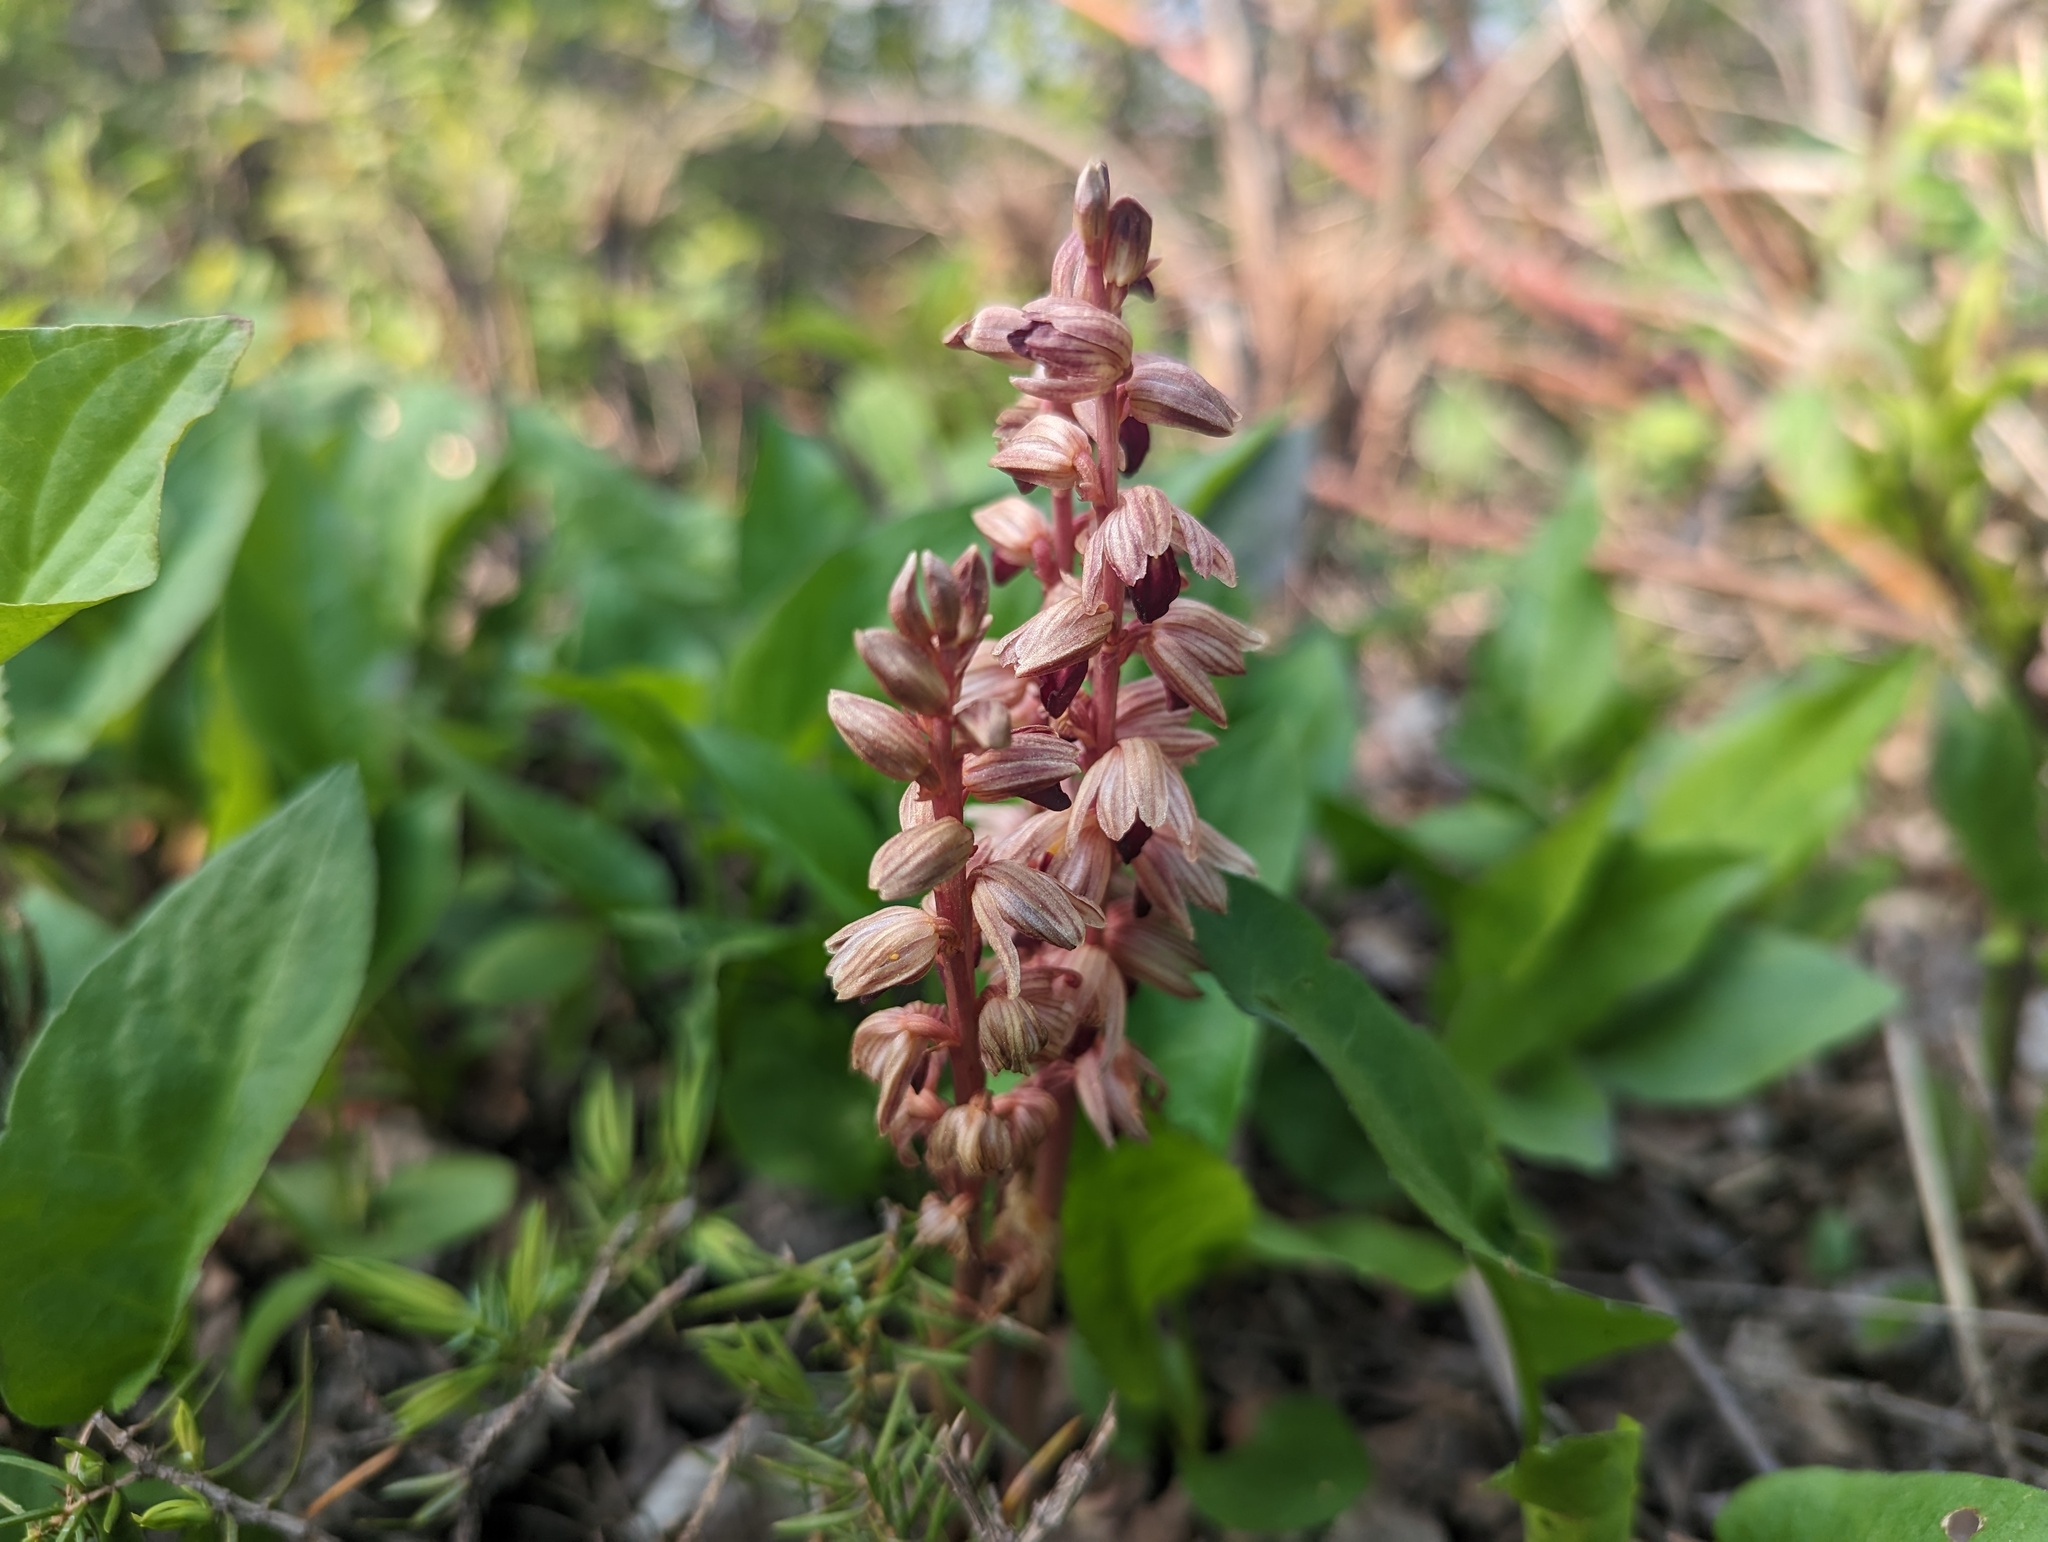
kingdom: Plantae
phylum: Tracheophyta
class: Liliopsida
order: Asparagales
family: Orchidaceae
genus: Corallorhiza
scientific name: Corallorhiza striata
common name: Hooded coralroot
